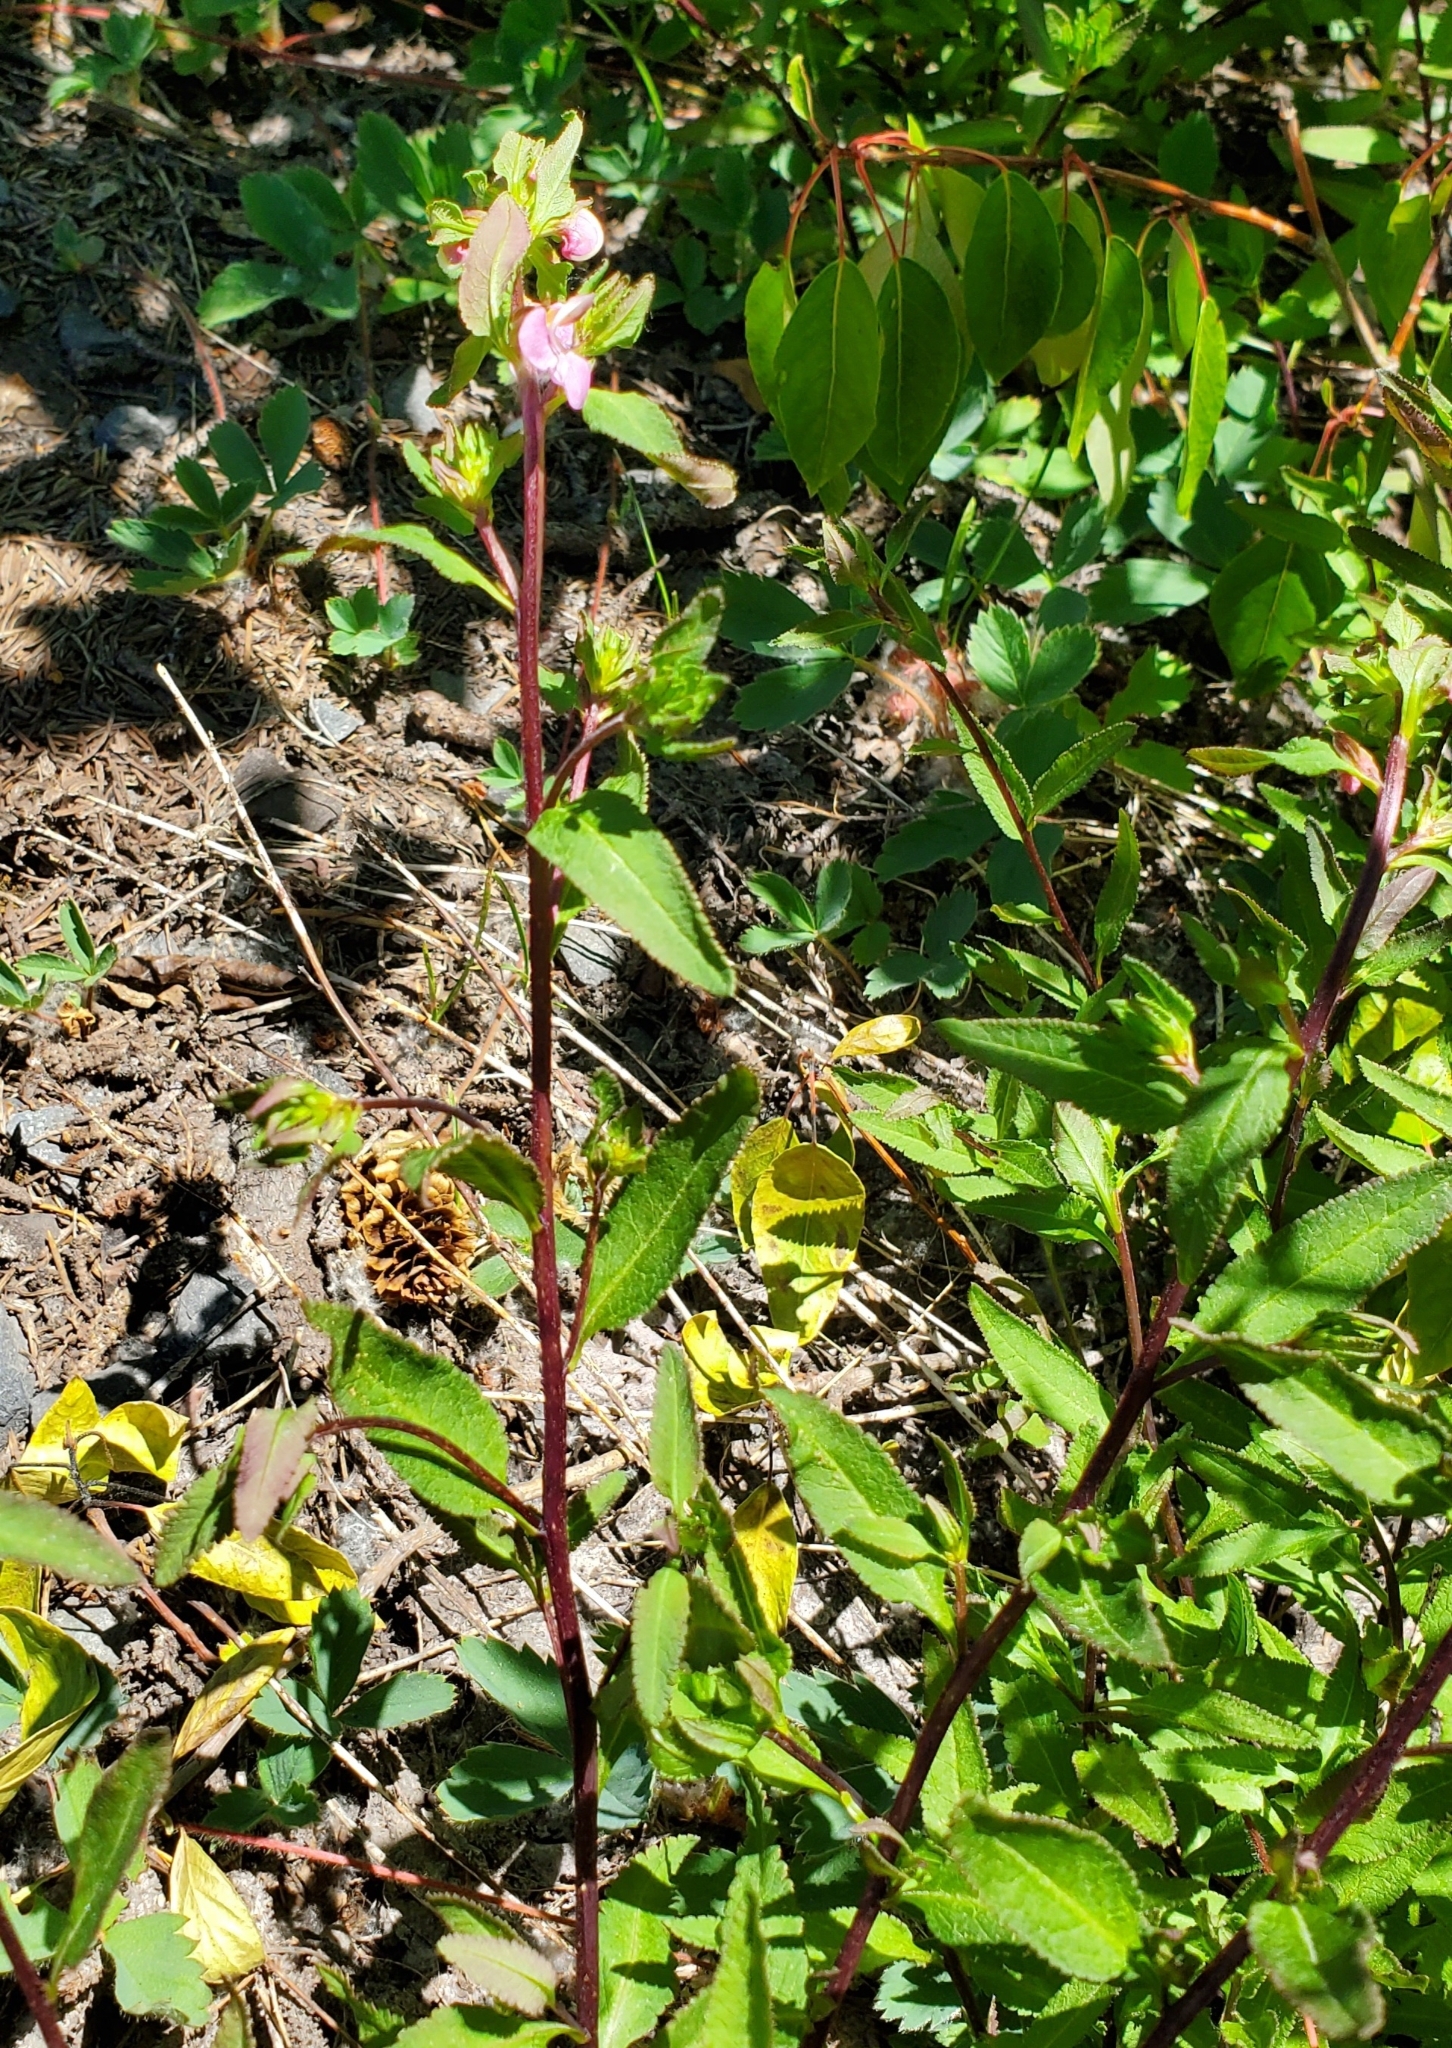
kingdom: Plantae
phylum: Tracheophyta
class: Magnoliopsida
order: Lamiales
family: Orobanchaceae
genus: Pedicularis
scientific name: Pedicularis racemosa
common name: Leafy lousewort
